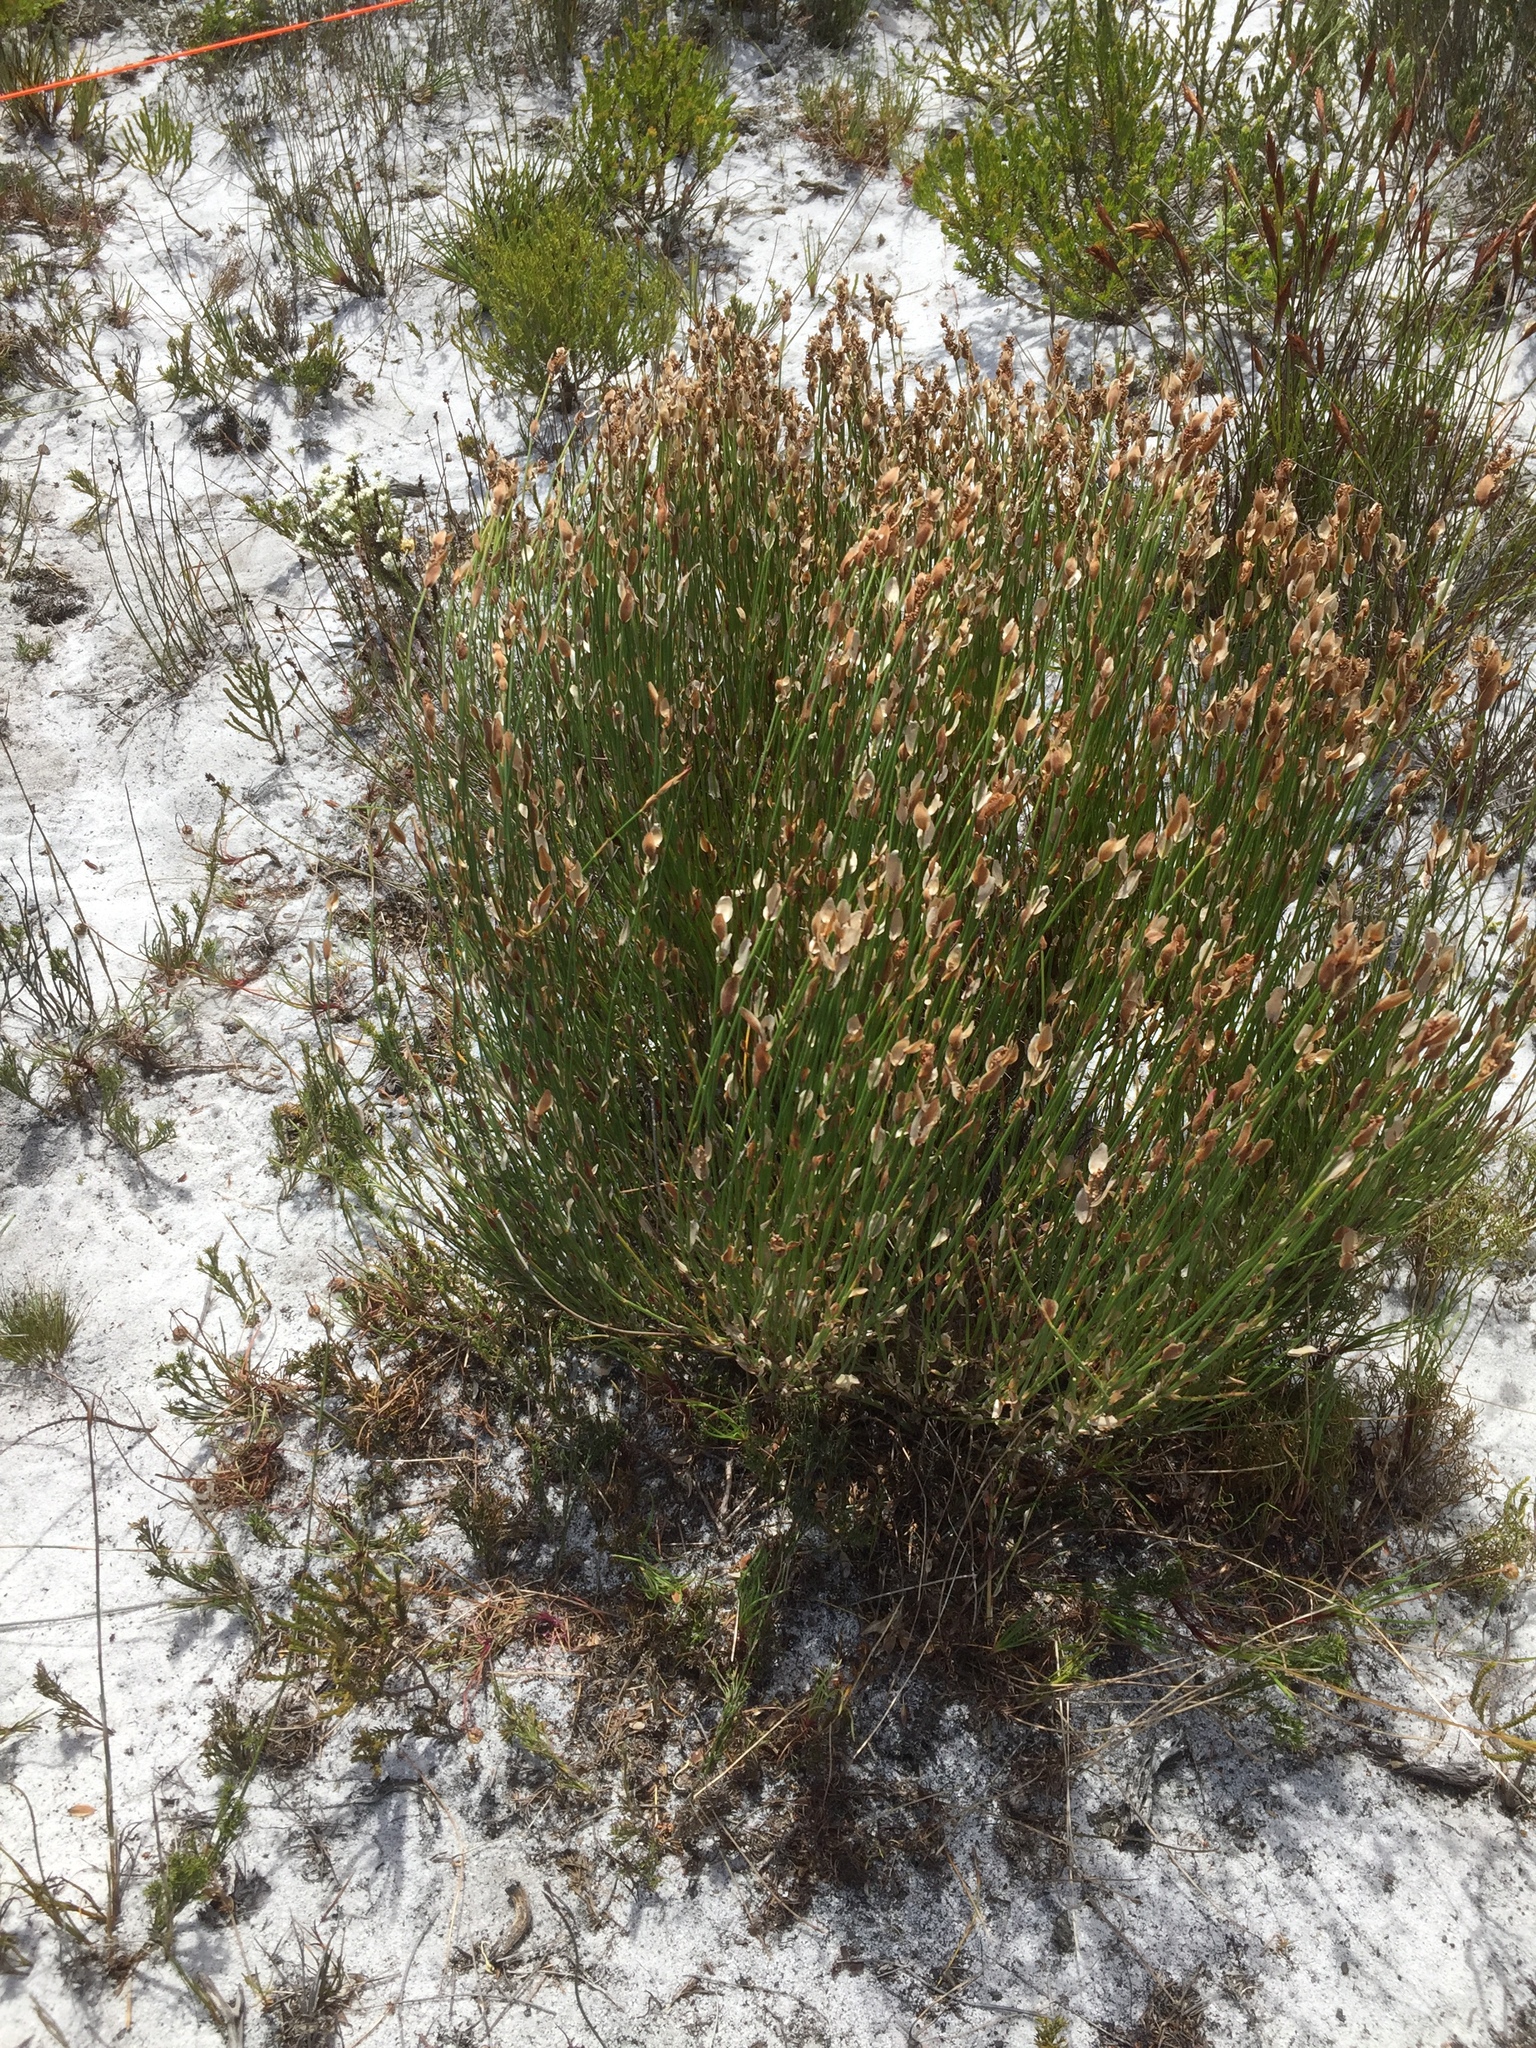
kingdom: Plantae
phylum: Tracheophyta
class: Liliopsida
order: Poales
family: Restionaceae
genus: Elegia
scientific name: Elegia stipularis
